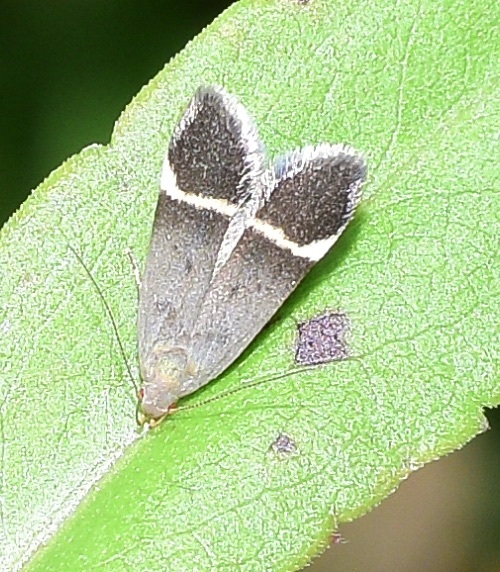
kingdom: Animalia
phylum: Arthropoda
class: Insecta
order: Lepidoptera
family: Gelechiidae
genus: Anacampsis
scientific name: Anacampsis agrimoniella
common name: Agrimony anacampsis moth
